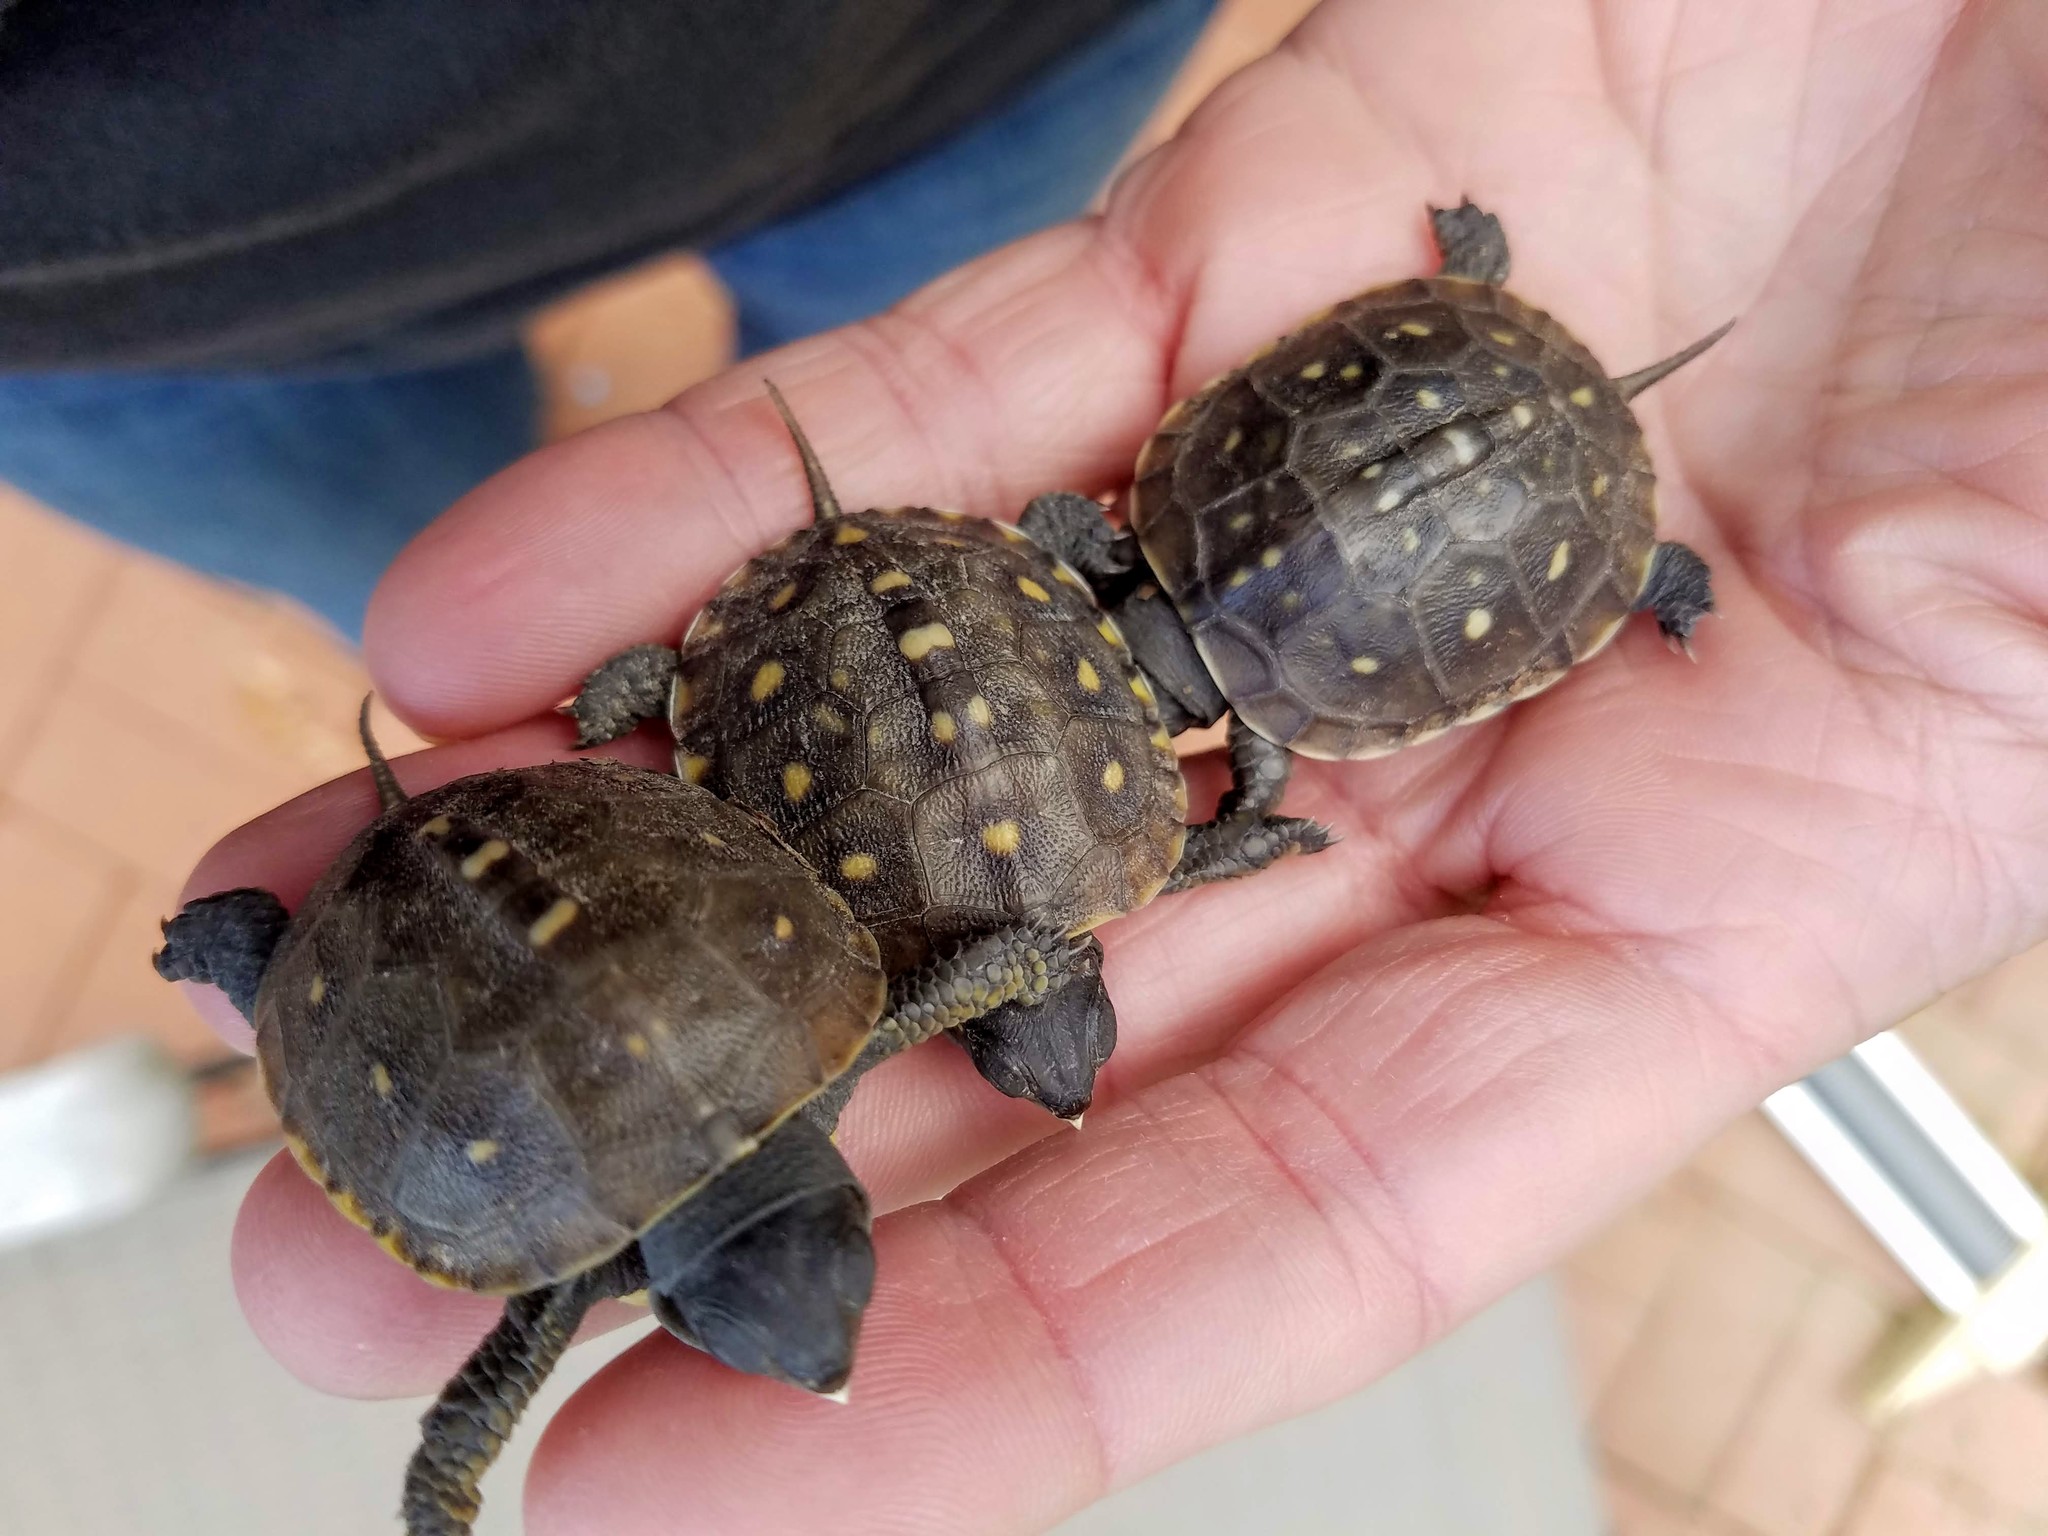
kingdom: Animalia
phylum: Chordata
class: Testudines
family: Emydidae
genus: Terrapene
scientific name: Terrapene carolina
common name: Common box turtle
